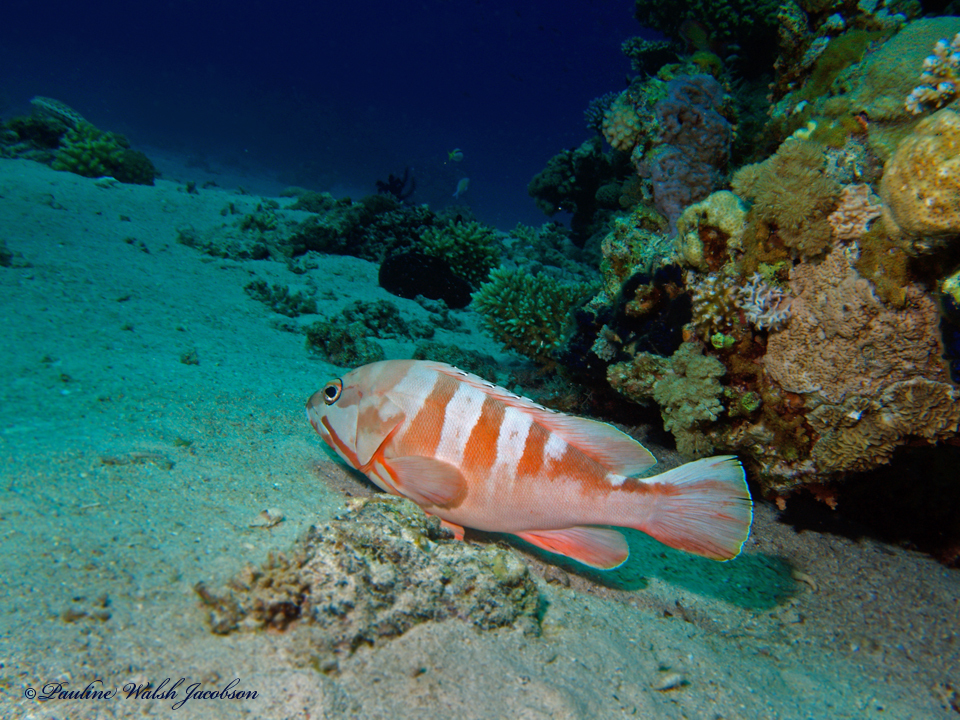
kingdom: Animalia
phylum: Chordata
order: Perciformes
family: Serranidae
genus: Epinephelus
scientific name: Epinephelus fasciatus
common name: Blacktip grouper
